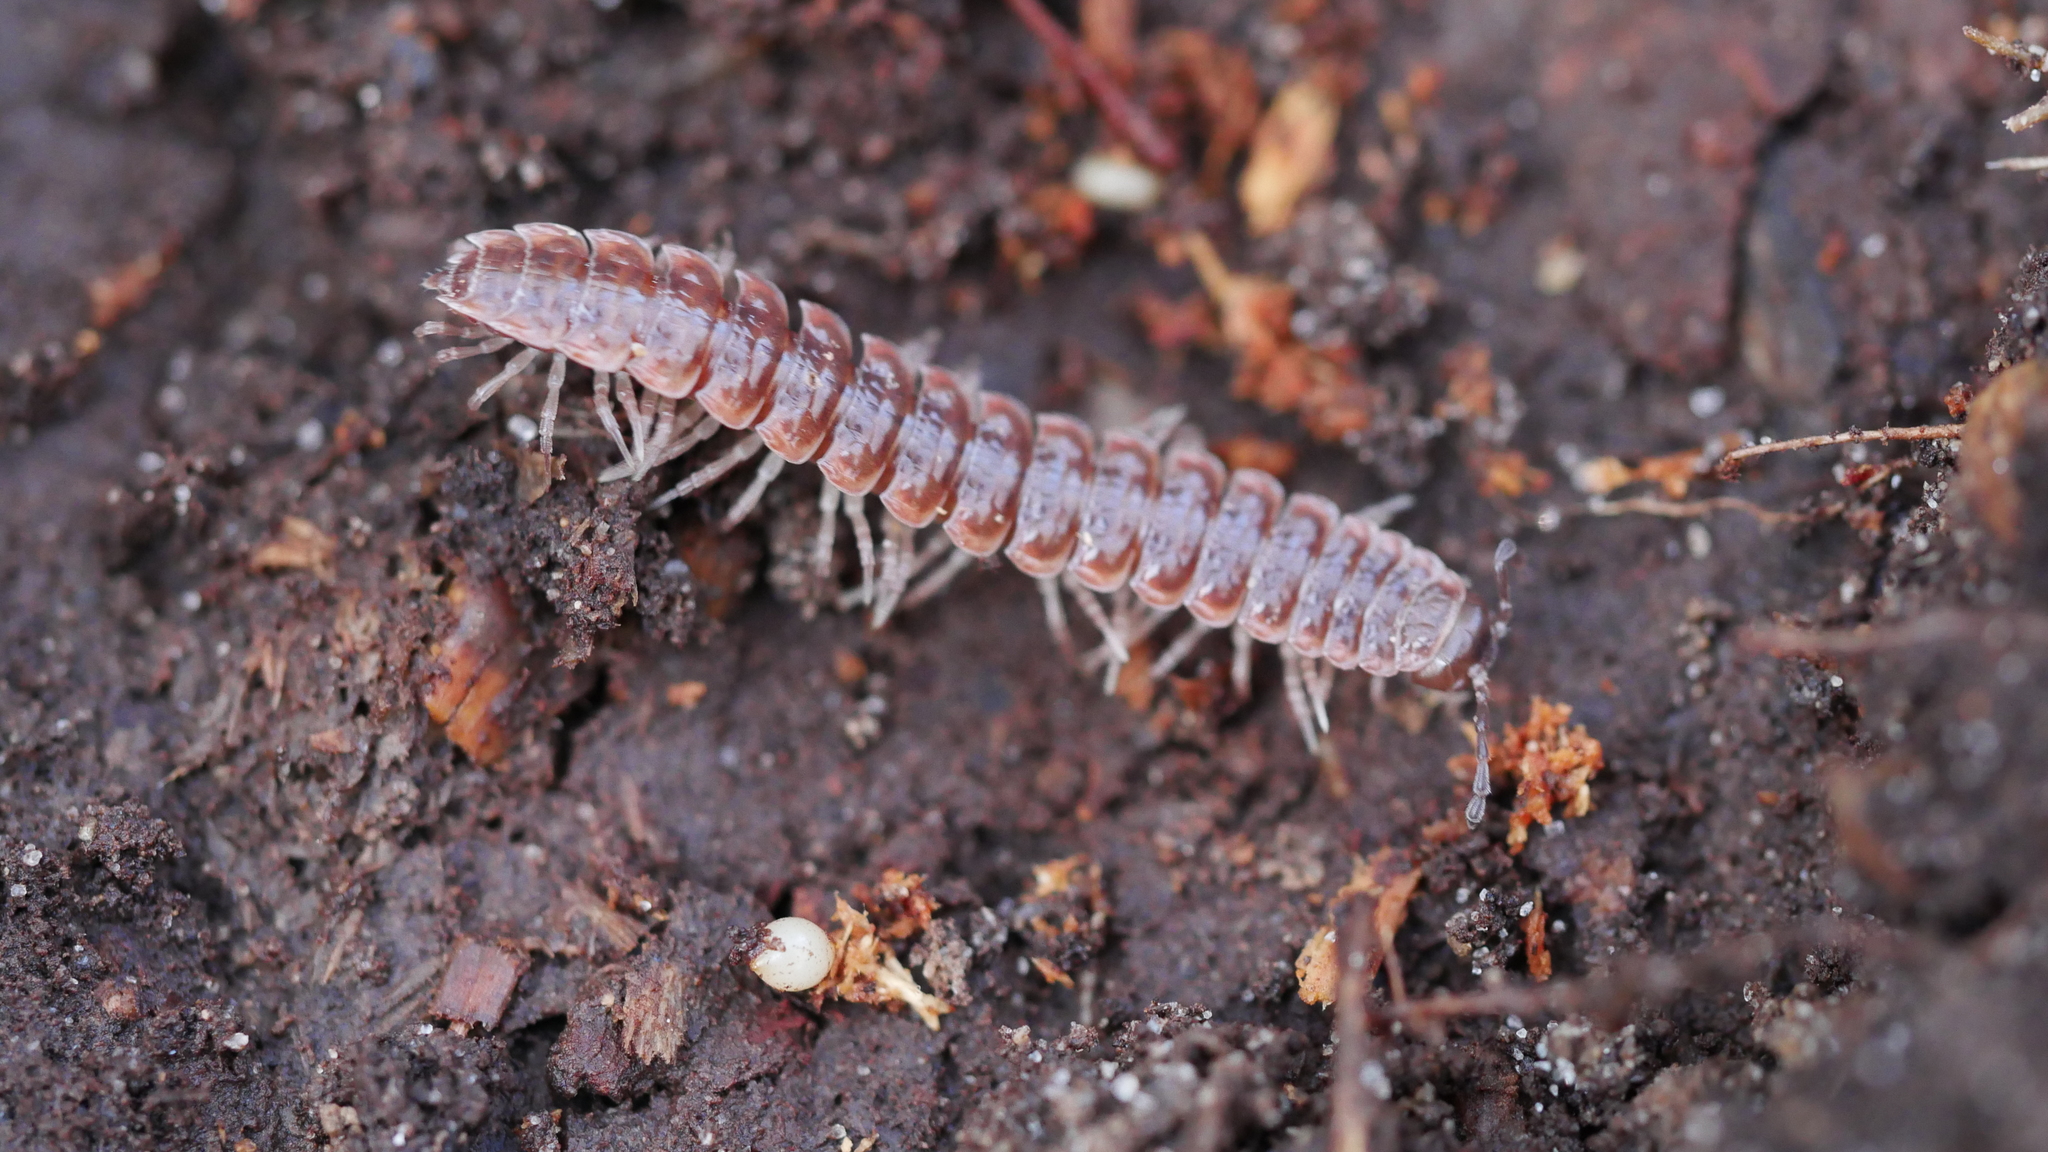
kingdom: Animalia
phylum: Arthropoda
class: Diplopoda
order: Polydesmida
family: Polydesmidae
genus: Pseudopolydesmus
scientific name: Pseudopolydesmus serratus
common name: Common pink flat-back millipede
